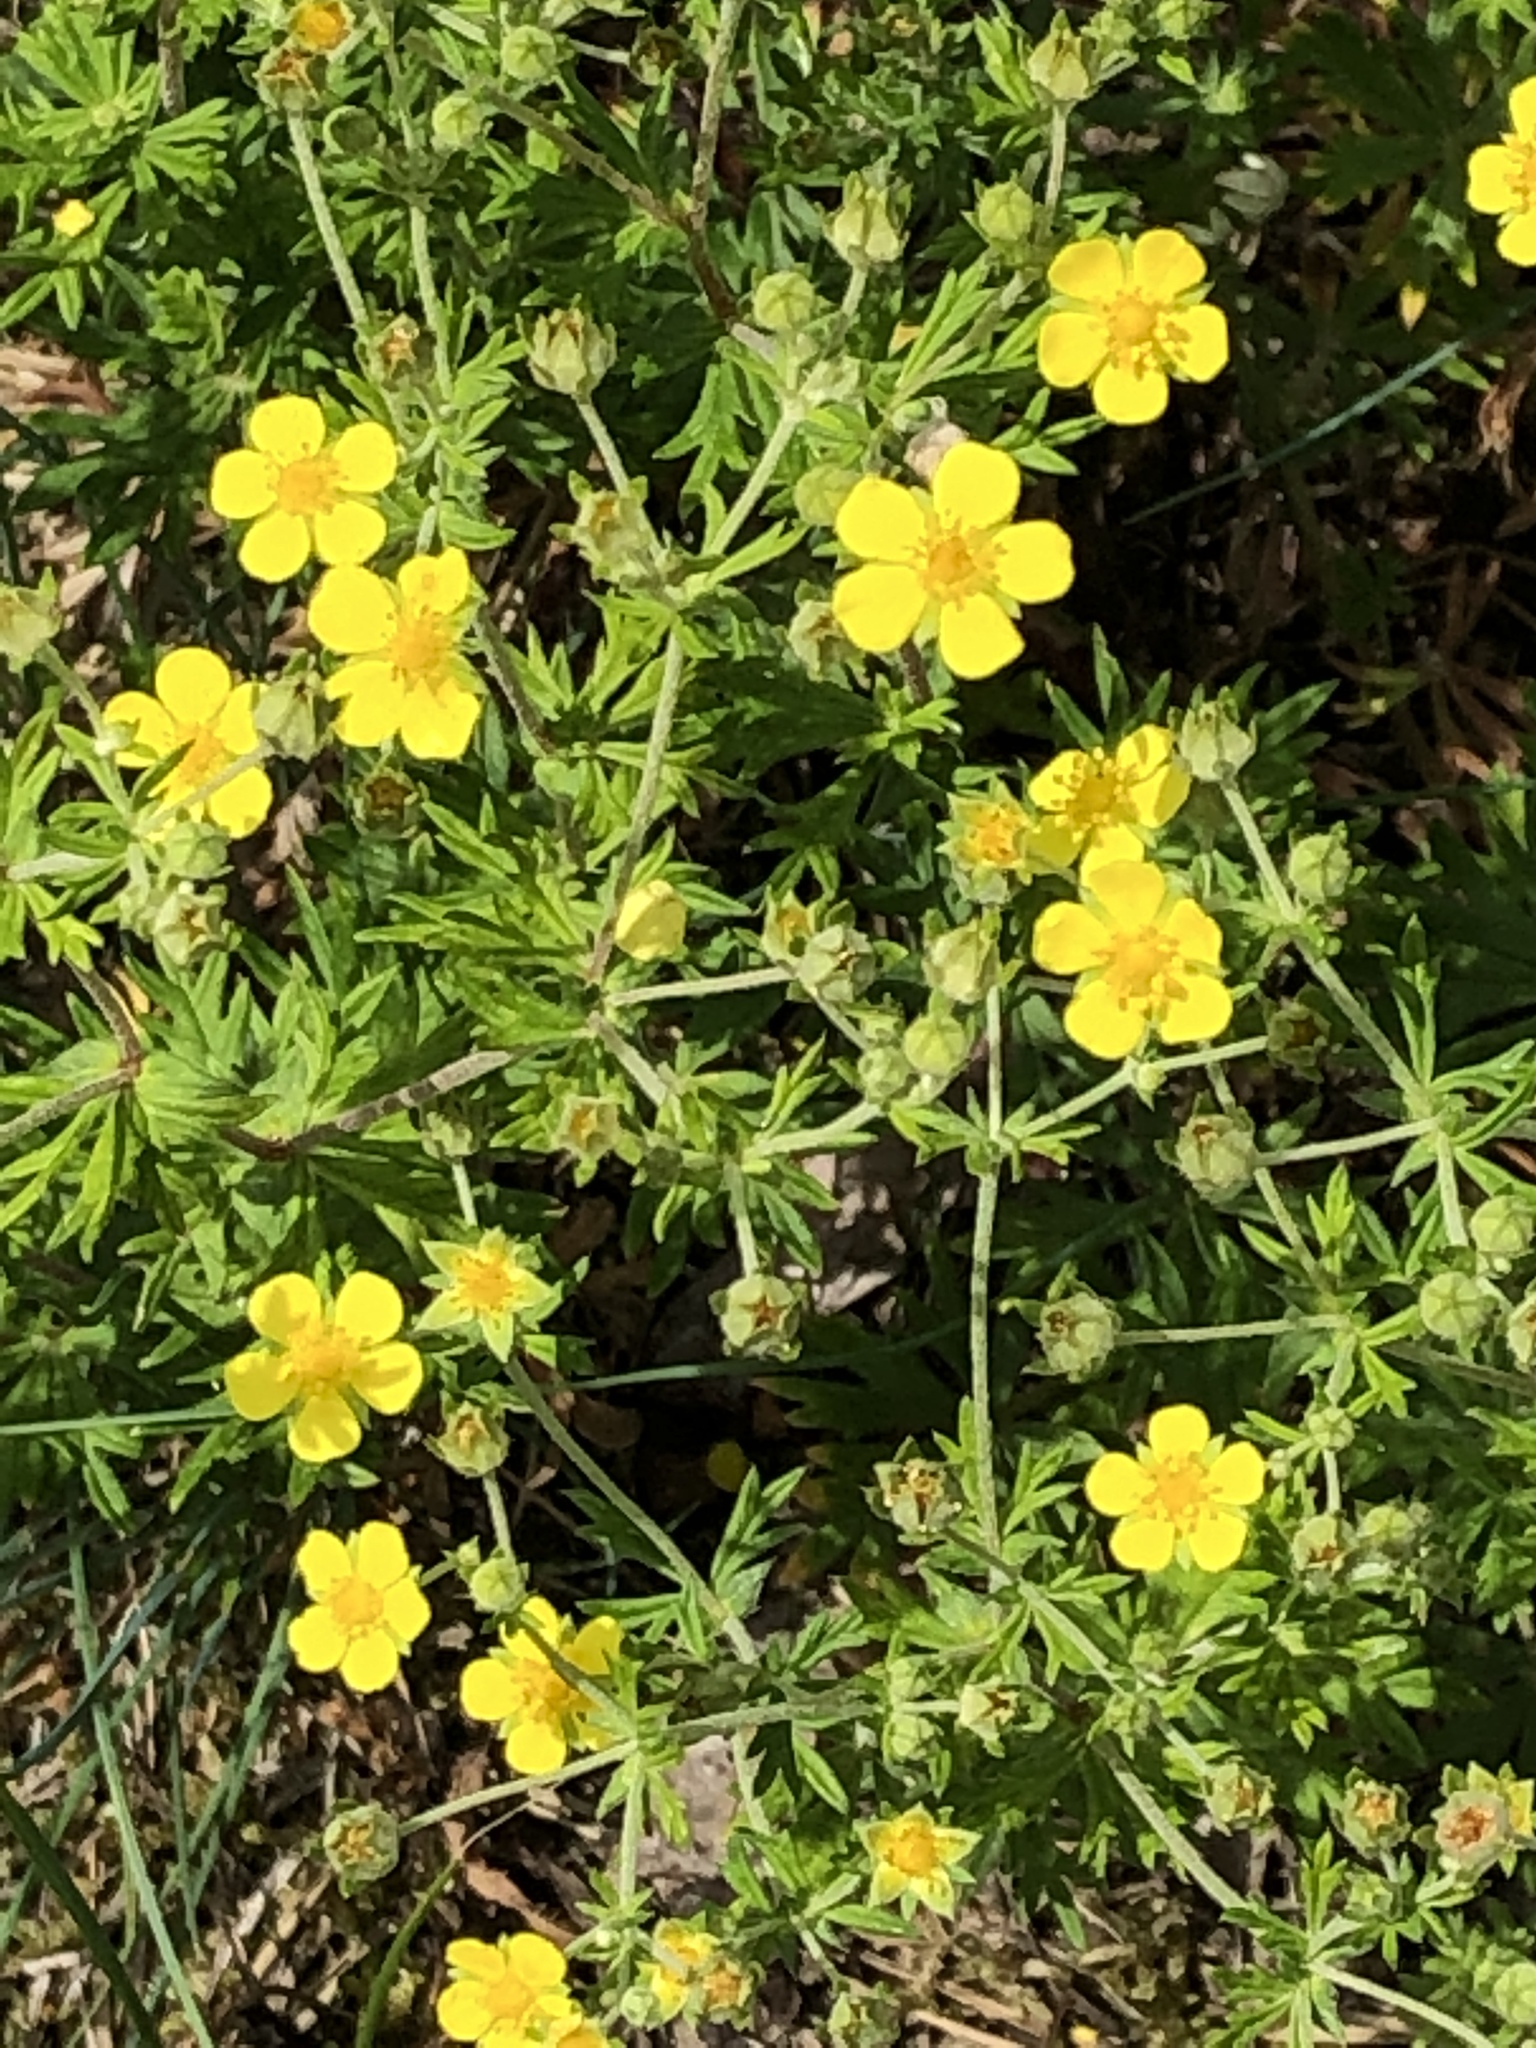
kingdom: Plantae
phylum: Tracheophyta
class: Magnoliopsida
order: Rosales
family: Rosaceae
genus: Potentilla
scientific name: Potentilla argentea
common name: Hoary cinquefoil
